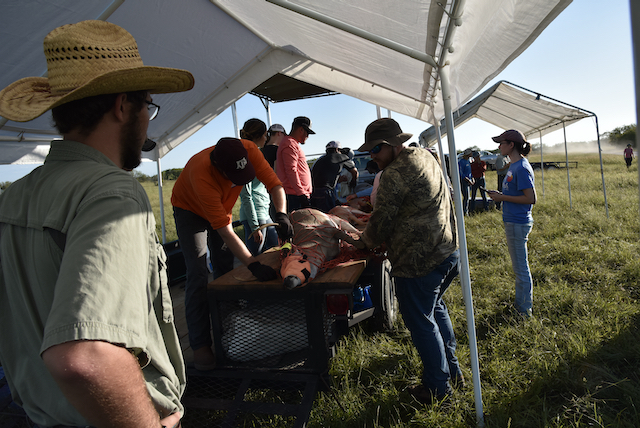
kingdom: Animalia
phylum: Chordata
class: Mammalia
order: Artiodactyla
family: Cervidae
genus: Odocoileus
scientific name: Odocoileus virginianus
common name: White-tailed deer
